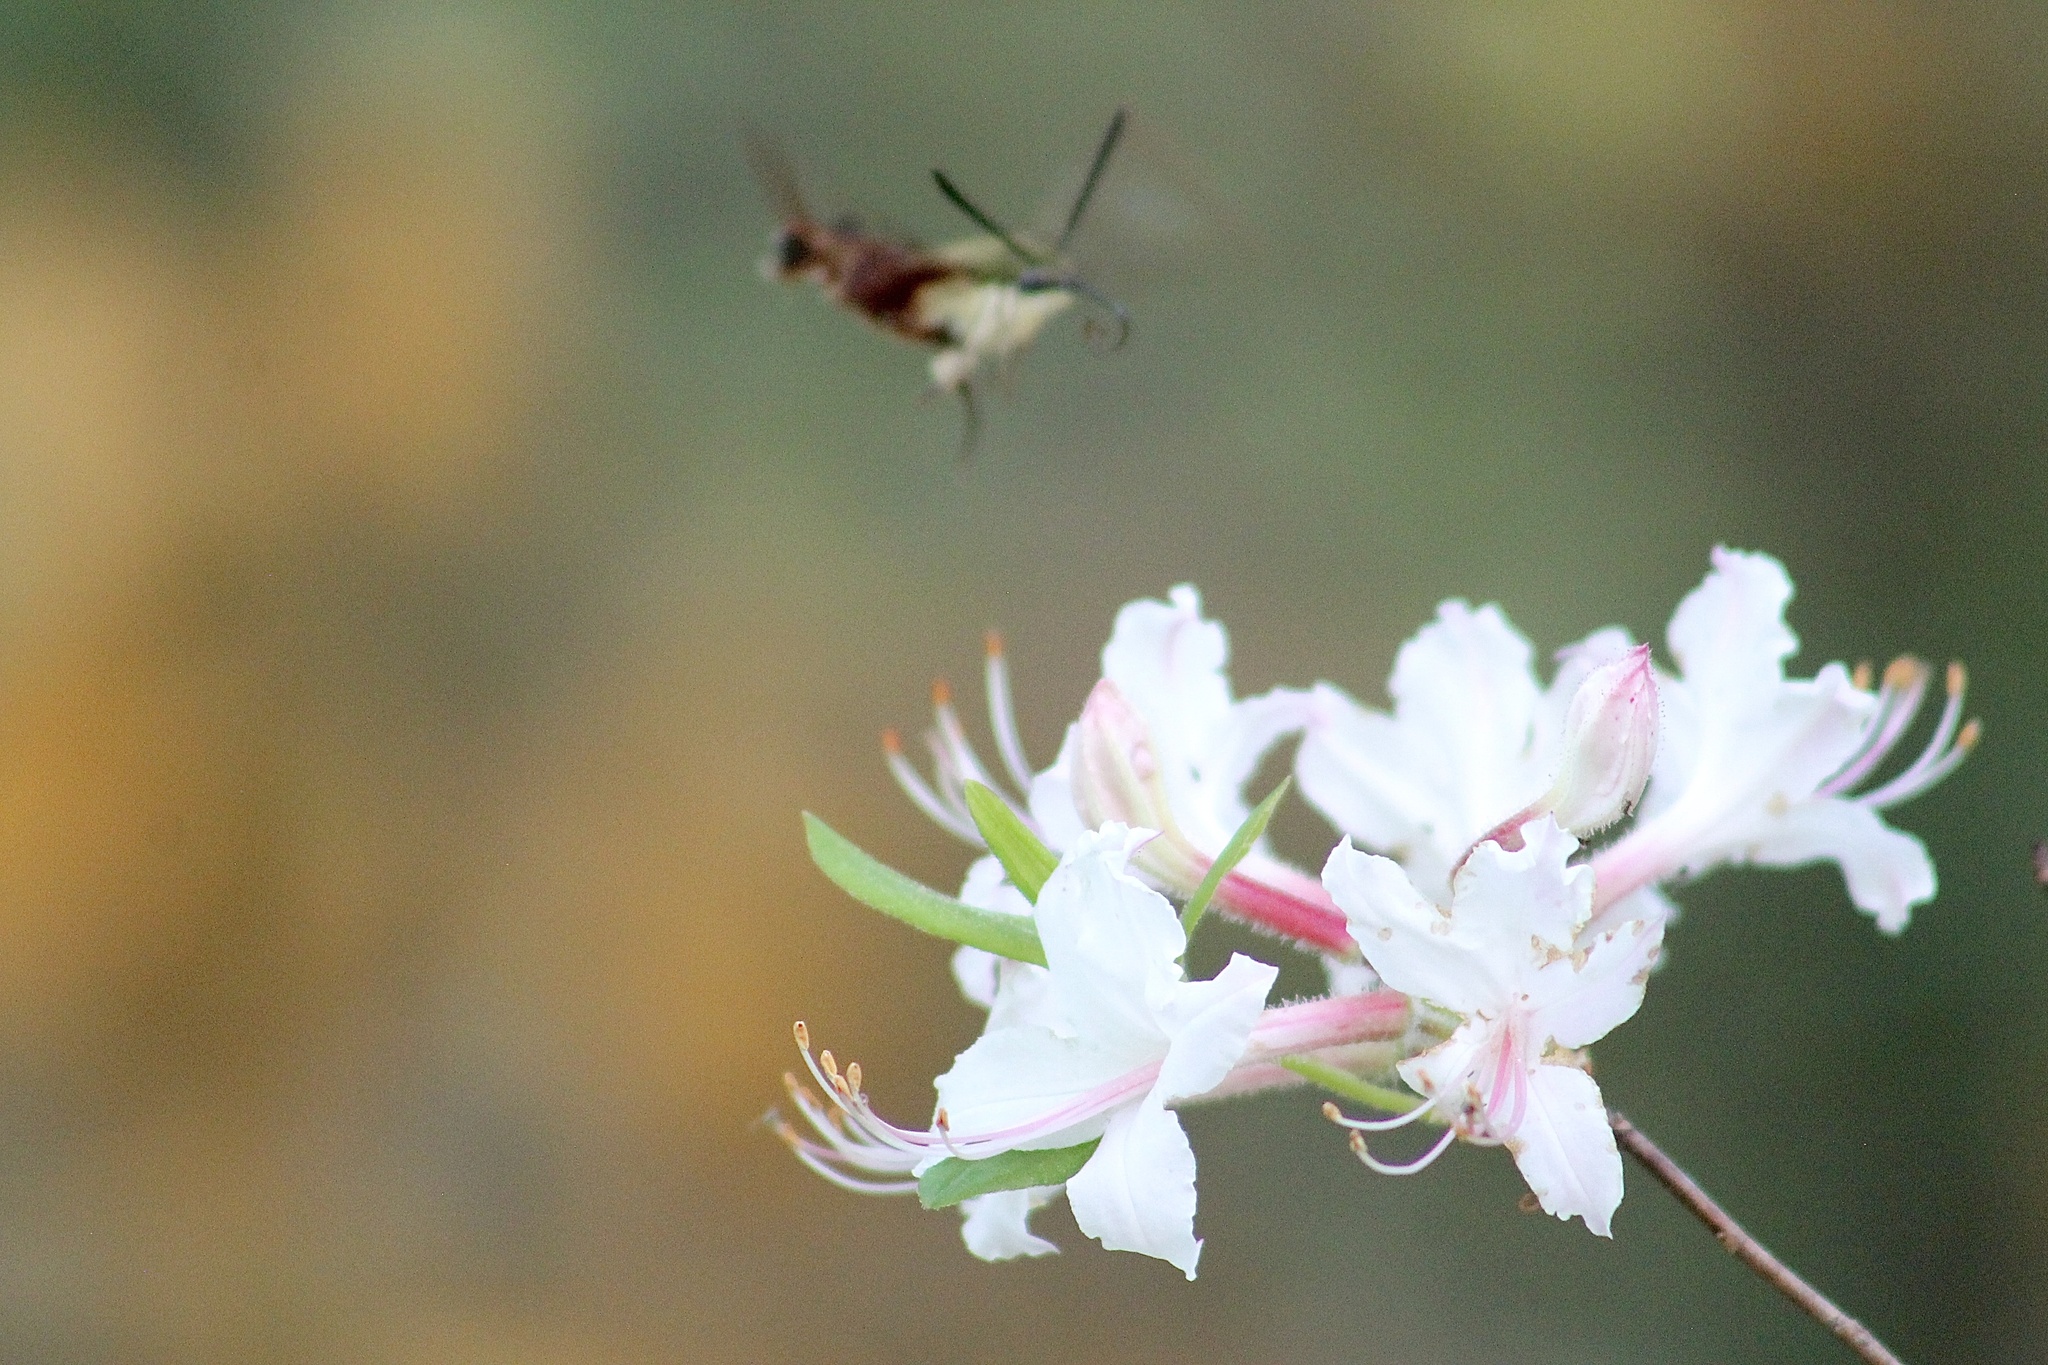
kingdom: Animalia
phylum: Arthropoda
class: Insecta
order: Lepidoptera
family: Sphingidae
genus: Hemaris
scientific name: Hemaris thysbe
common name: Common clear-wing
